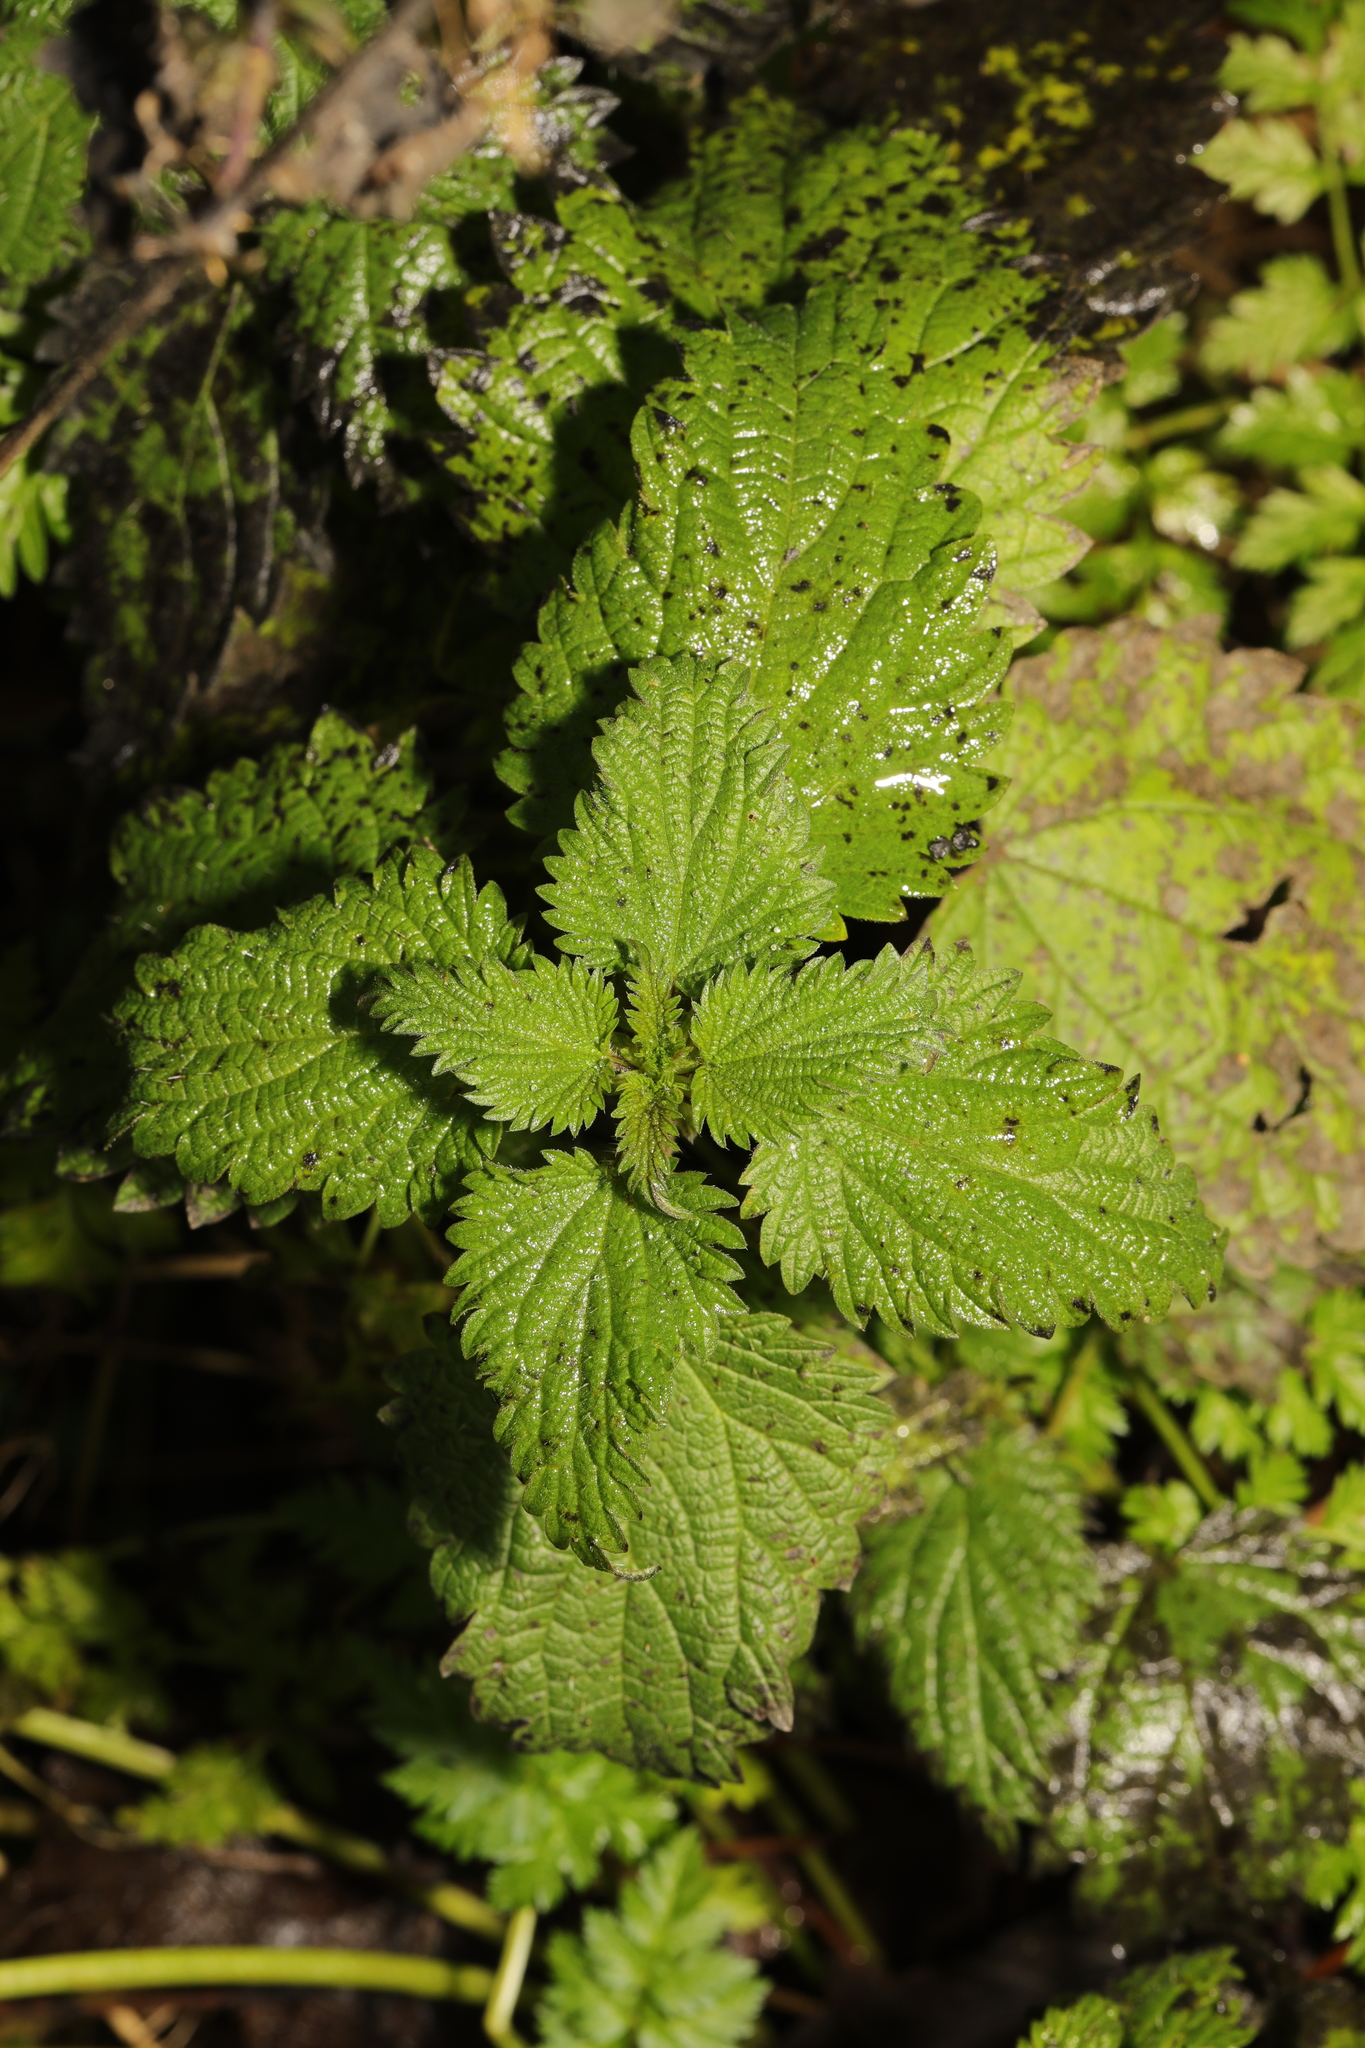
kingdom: Plantae
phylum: Tracheophyta
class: Magnoliopsida
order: Rosales
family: Urticaceae
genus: Urtica
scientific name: Urtica dioica
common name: Common nettle
